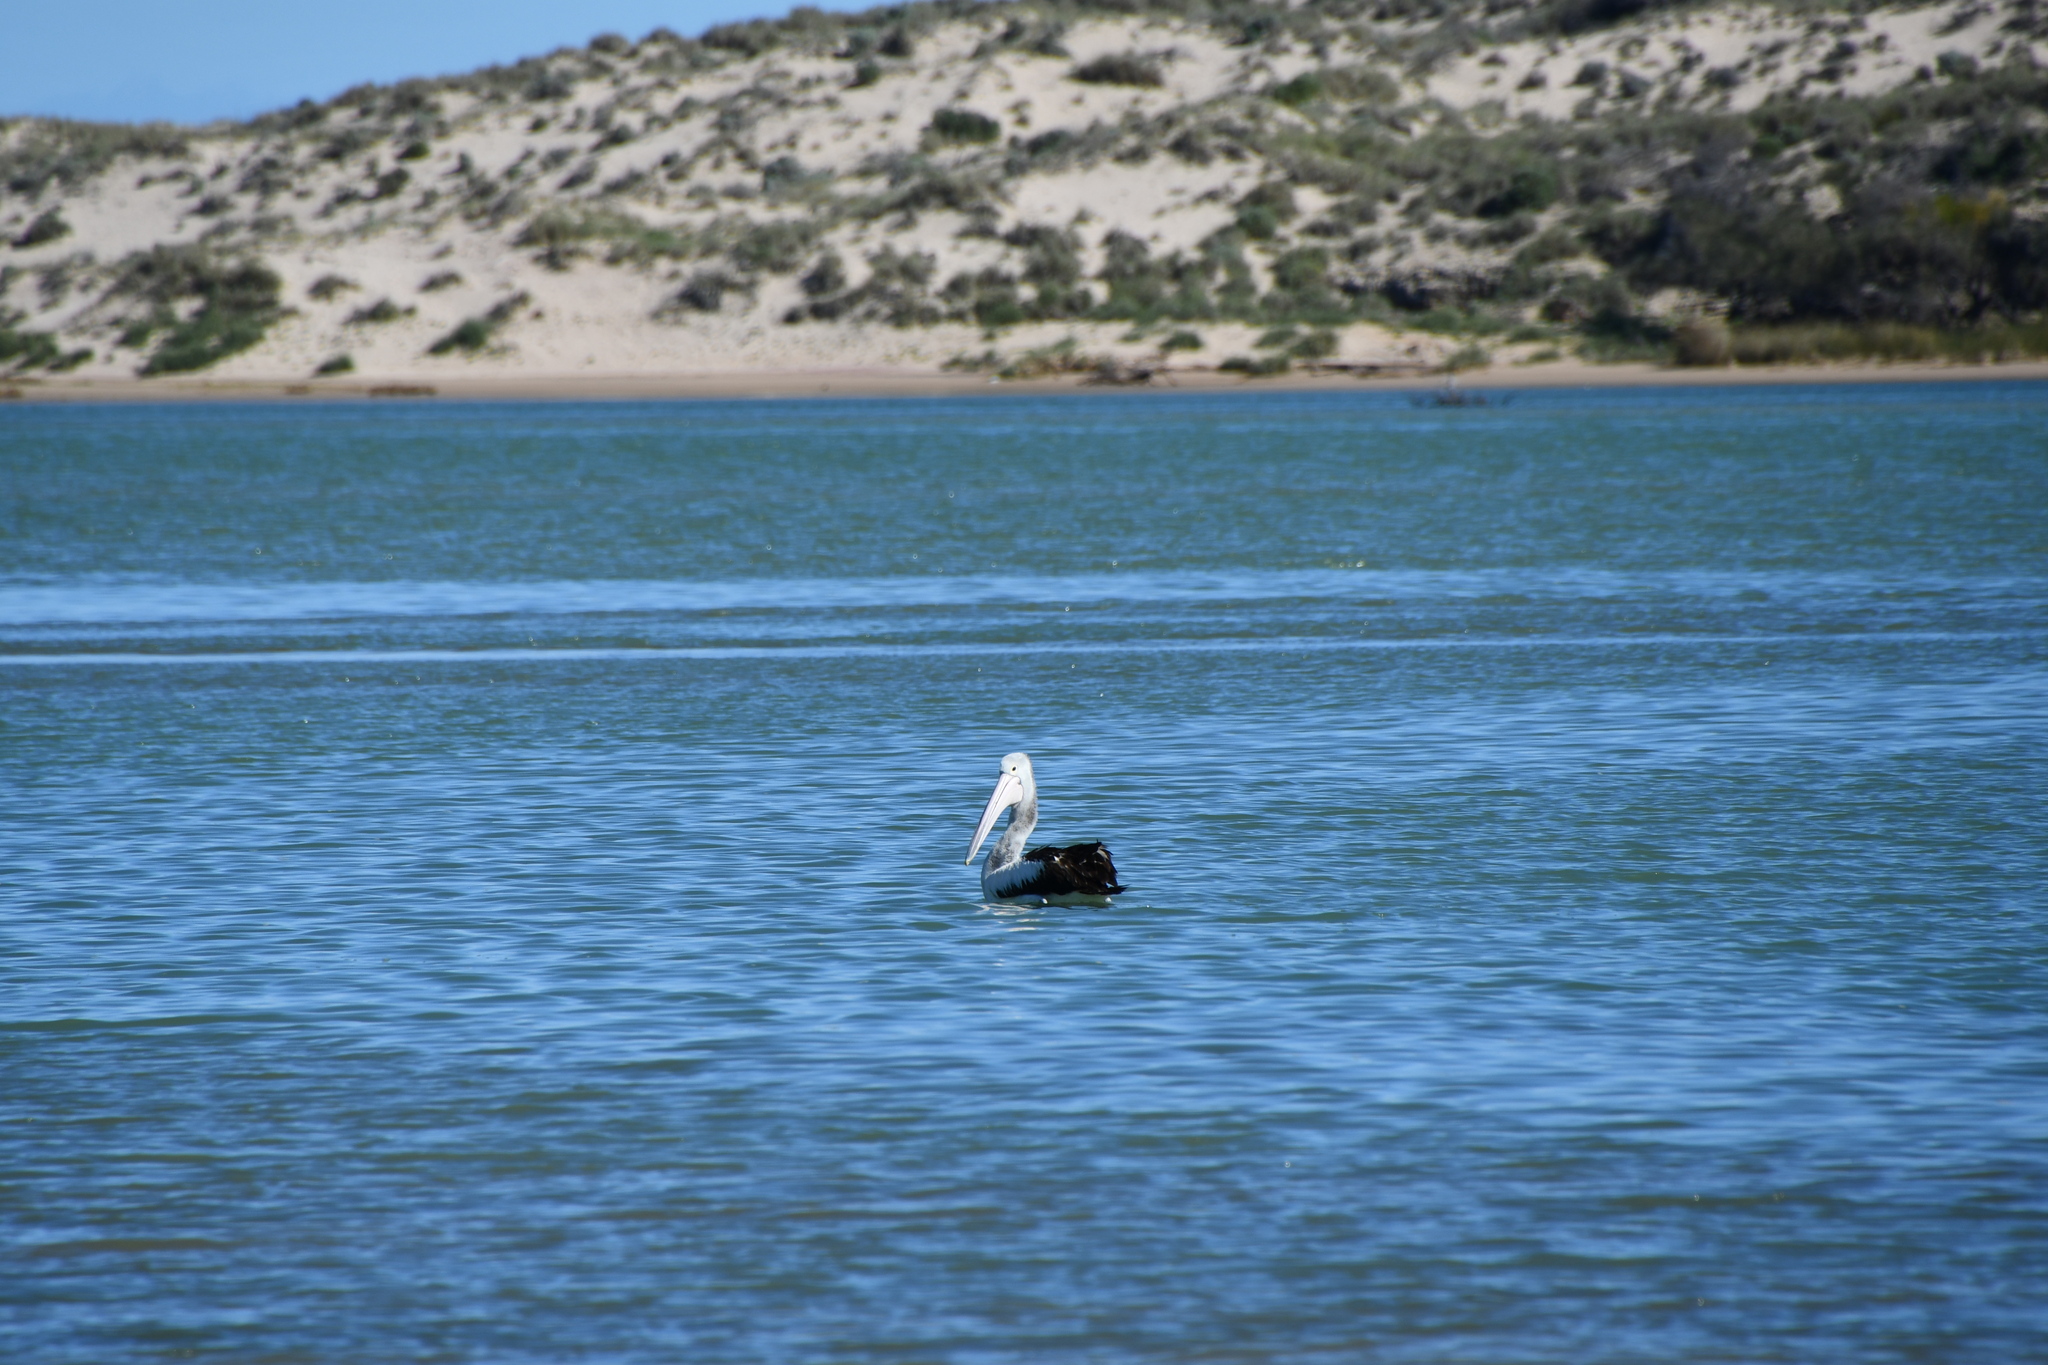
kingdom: Animalia
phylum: Chordata
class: Aves
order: Pelecaniformes
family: Pelecanidae
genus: Pelecanus
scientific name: Pelecanus conspicillatus
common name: Australian pelican
